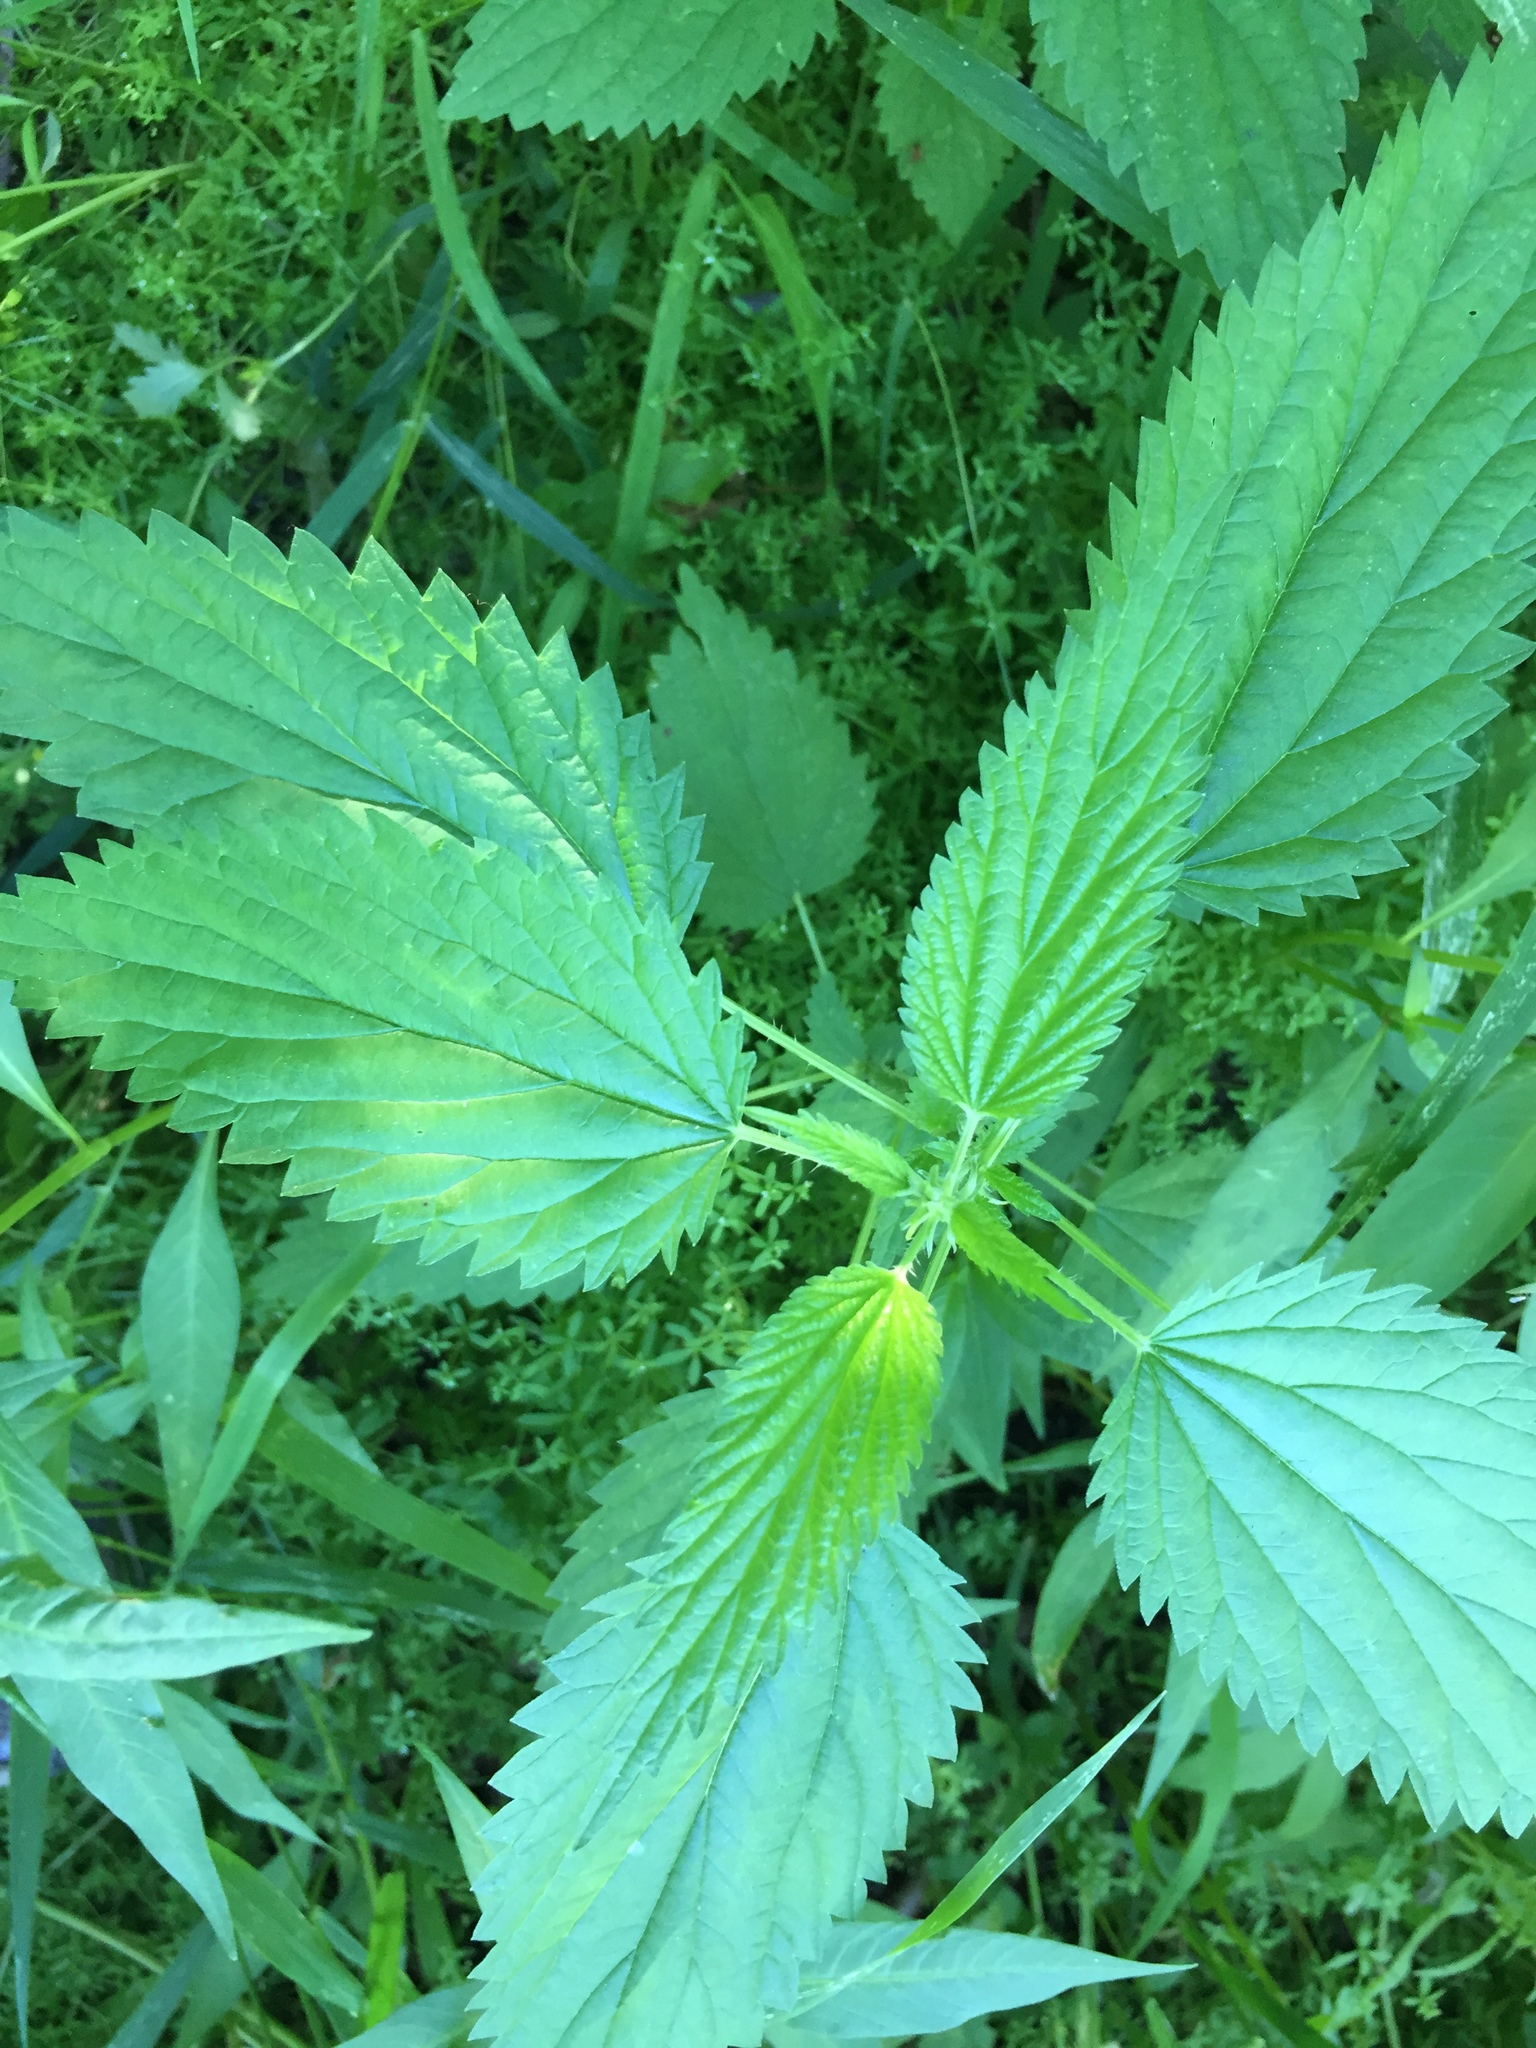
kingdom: Plantae
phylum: Tracheophyta
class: Magnoliopsida
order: Rosales
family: Urticaceae
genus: Urtica
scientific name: Urtica gracilis
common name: Slender stinging nettle
